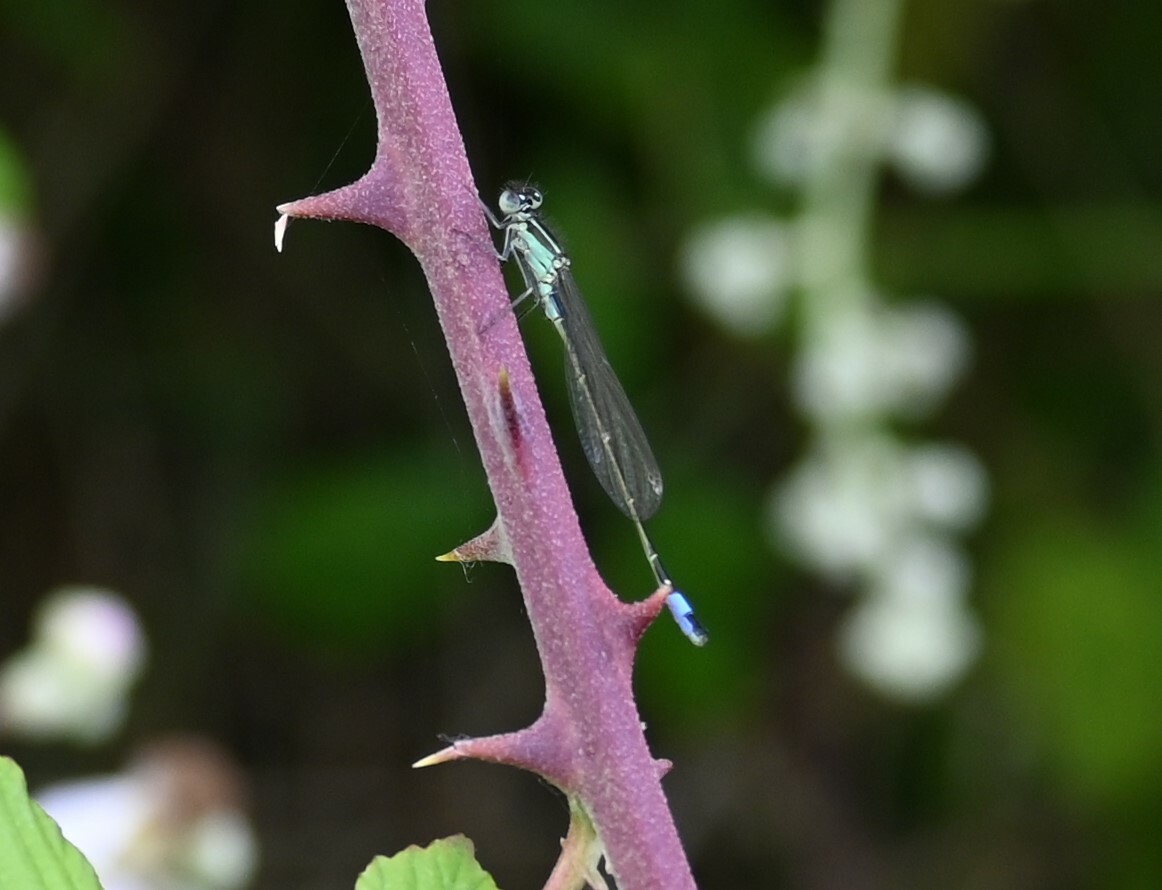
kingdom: Animalia
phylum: Arthropoda
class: Insecta
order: Odonata
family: Coenagrionidae
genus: Ischnura
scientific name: Ischnura elegans
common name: Blue-tailed damselfly
